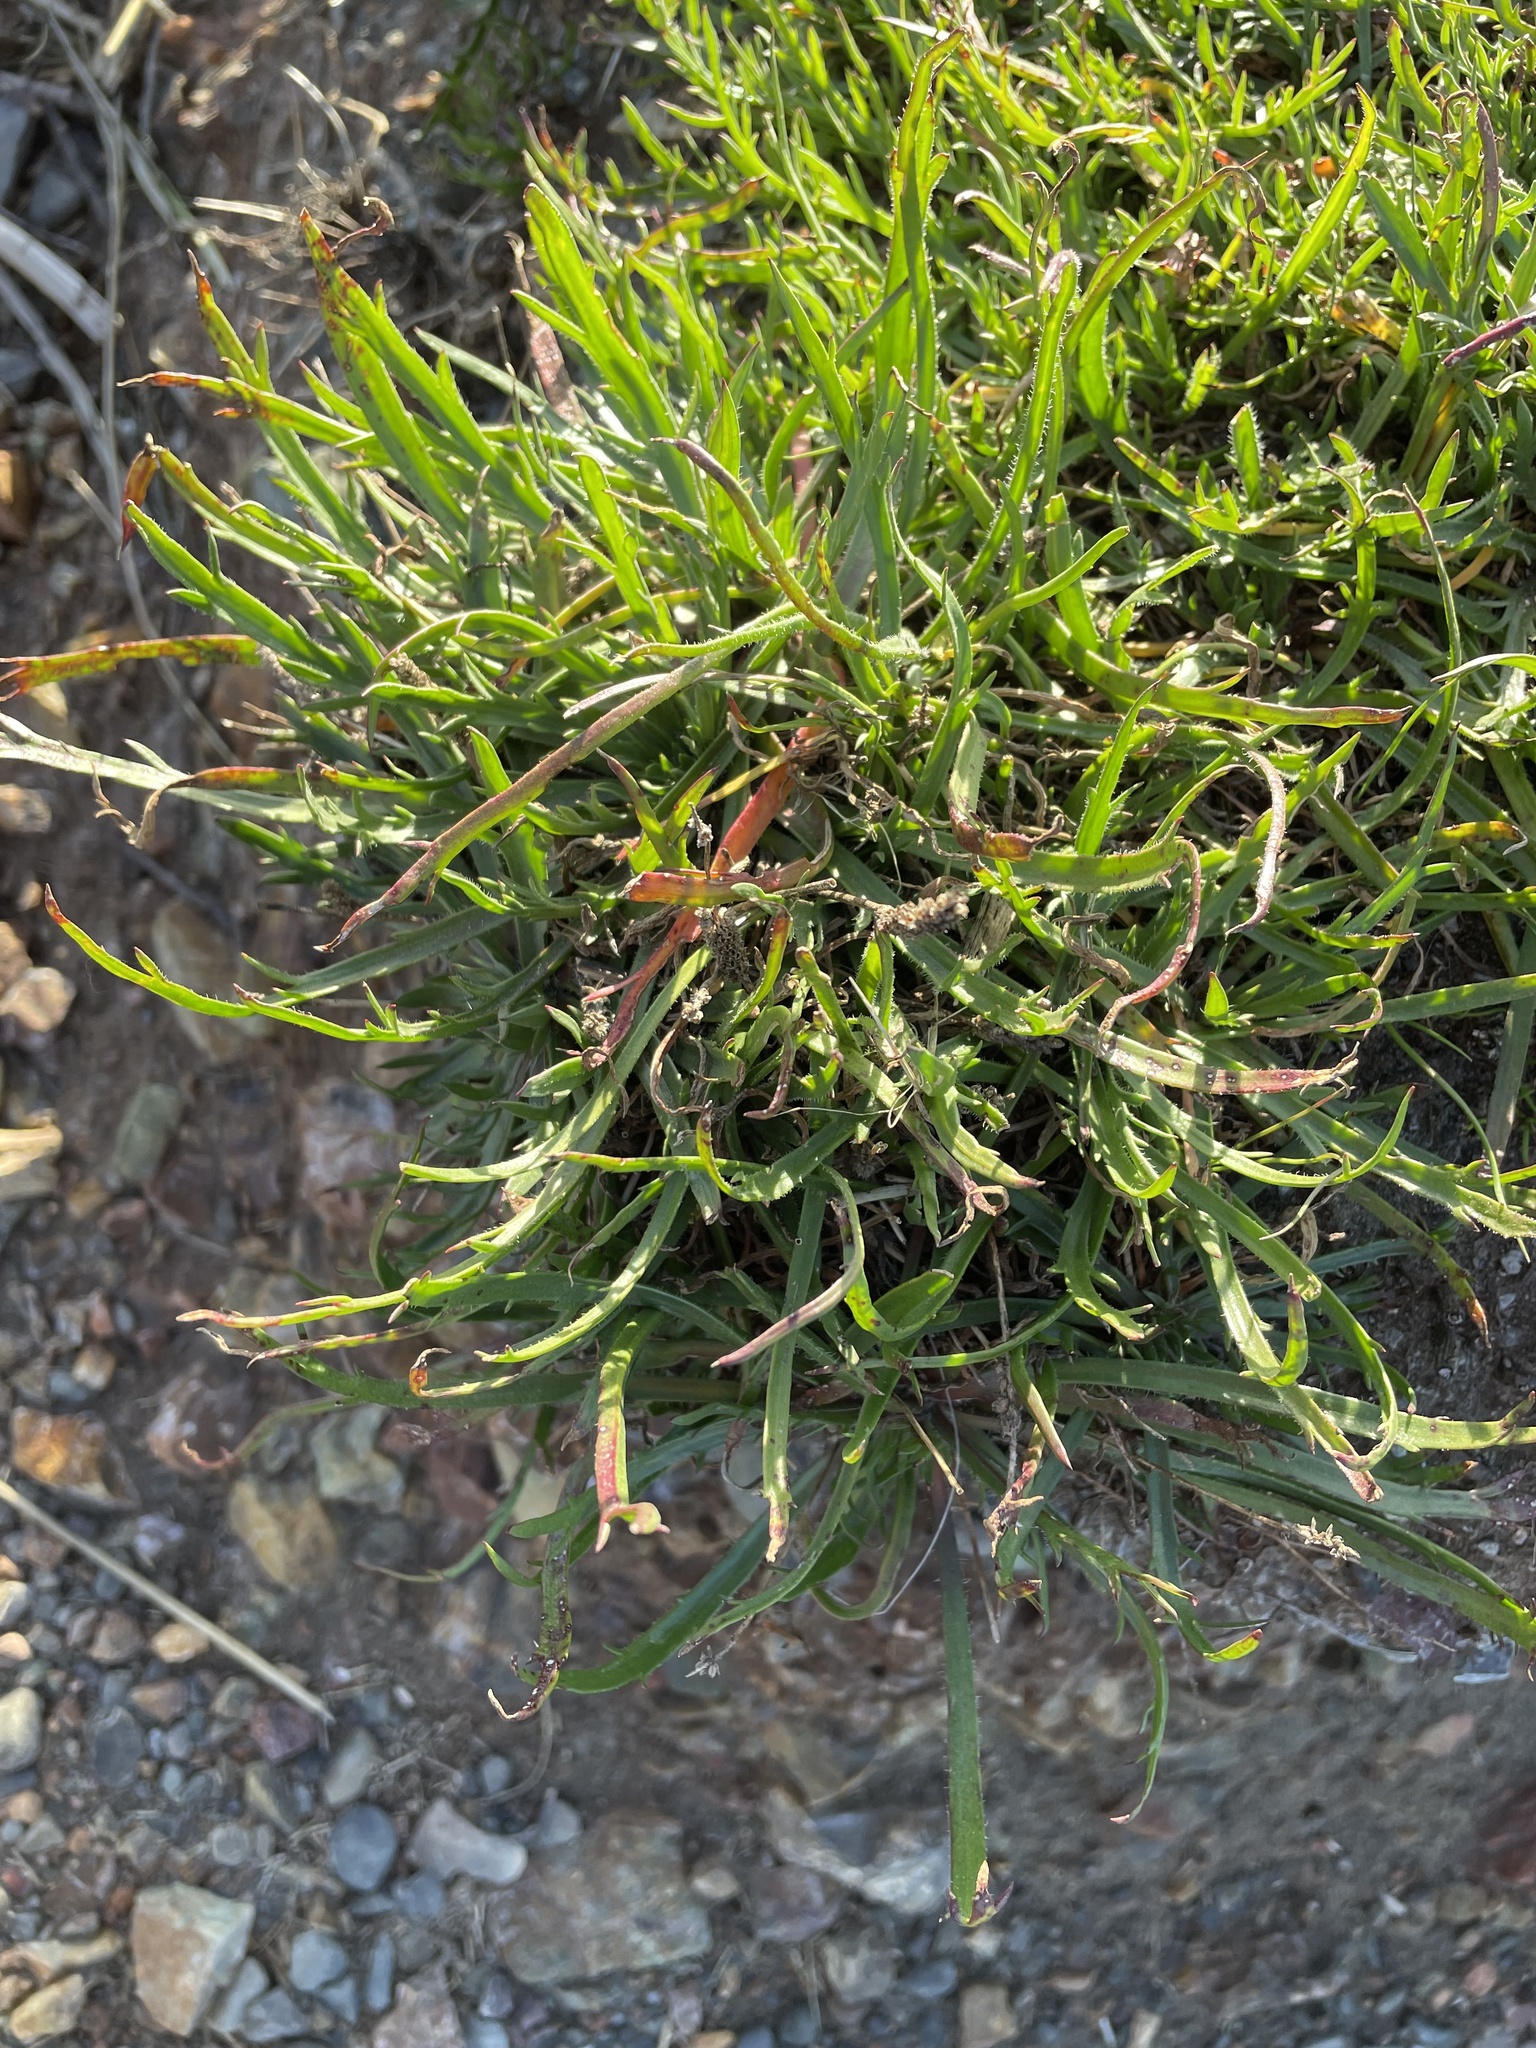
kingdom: Plantae
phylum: Tracheophyta
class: Magnoliopsida
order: Lamiales
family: Plantaginaceae
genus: Plantago
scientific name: Plantago coronopus
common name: Buck's-horn plantain
